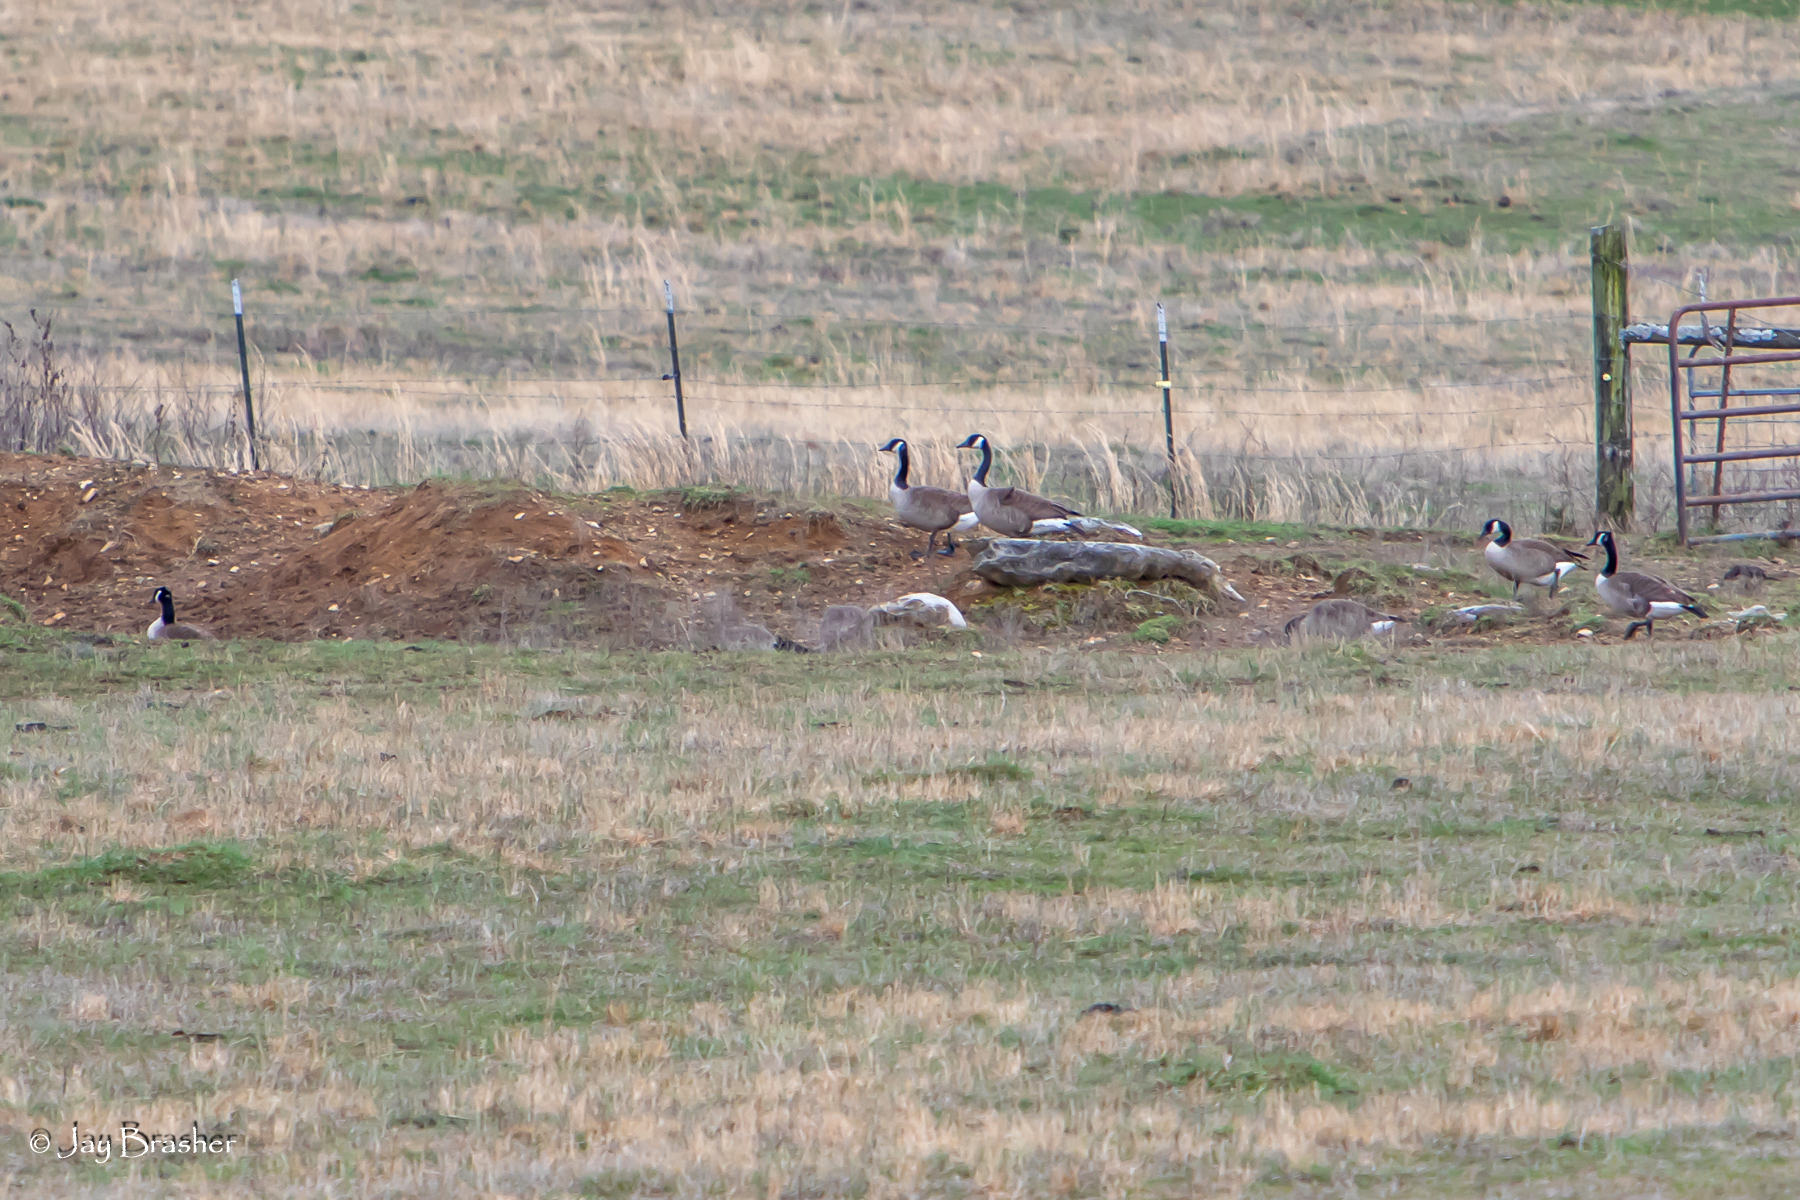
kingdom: Animalia
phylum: Chordata
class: Aves
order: Anseriformes
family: Anatidae
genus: Branta
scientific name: Branta canadensis
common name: Canada goose
